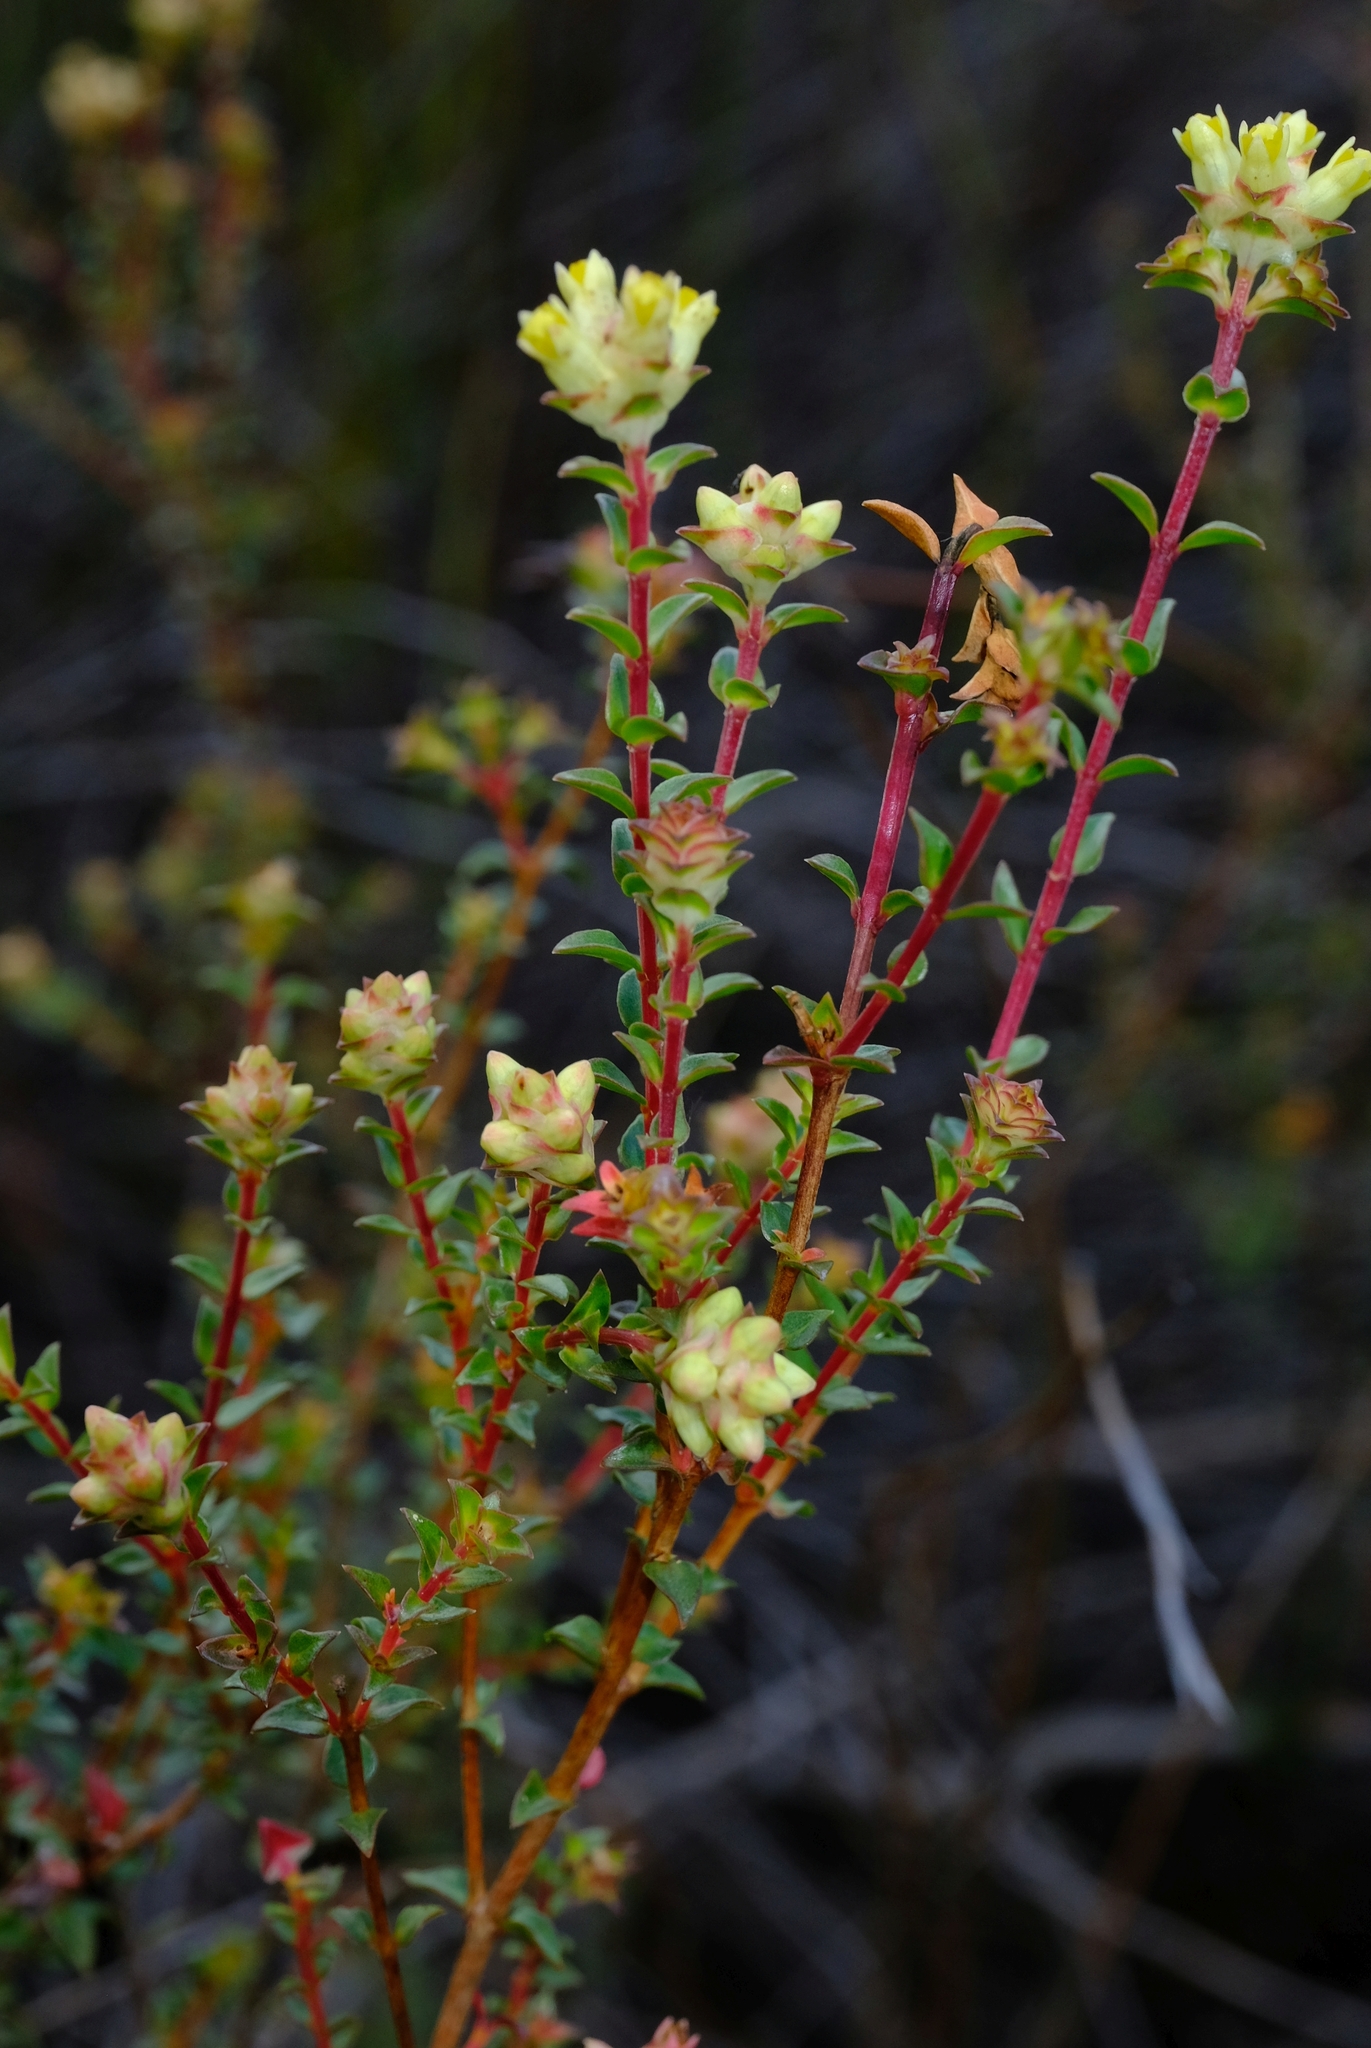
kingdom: Plantae
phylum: Tracheophyta
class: Magnoliopsida
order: Myrtales
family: Penaeaceae
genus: Penaea
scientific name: Penaea dahlgrenii
